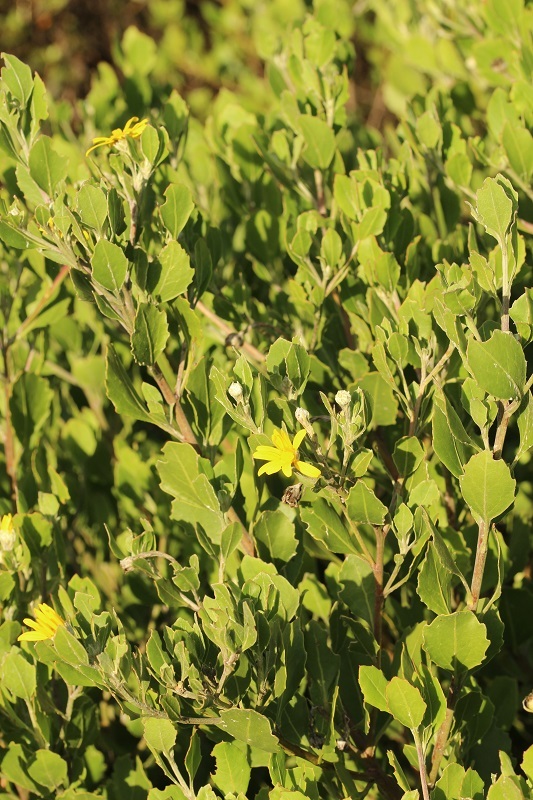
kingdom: Plantae
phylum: Tracheophyta
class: Magnoliopsida
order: Asterales
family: Asteraceae
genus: Osteospermum
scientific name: Osteospermum moniliferum
